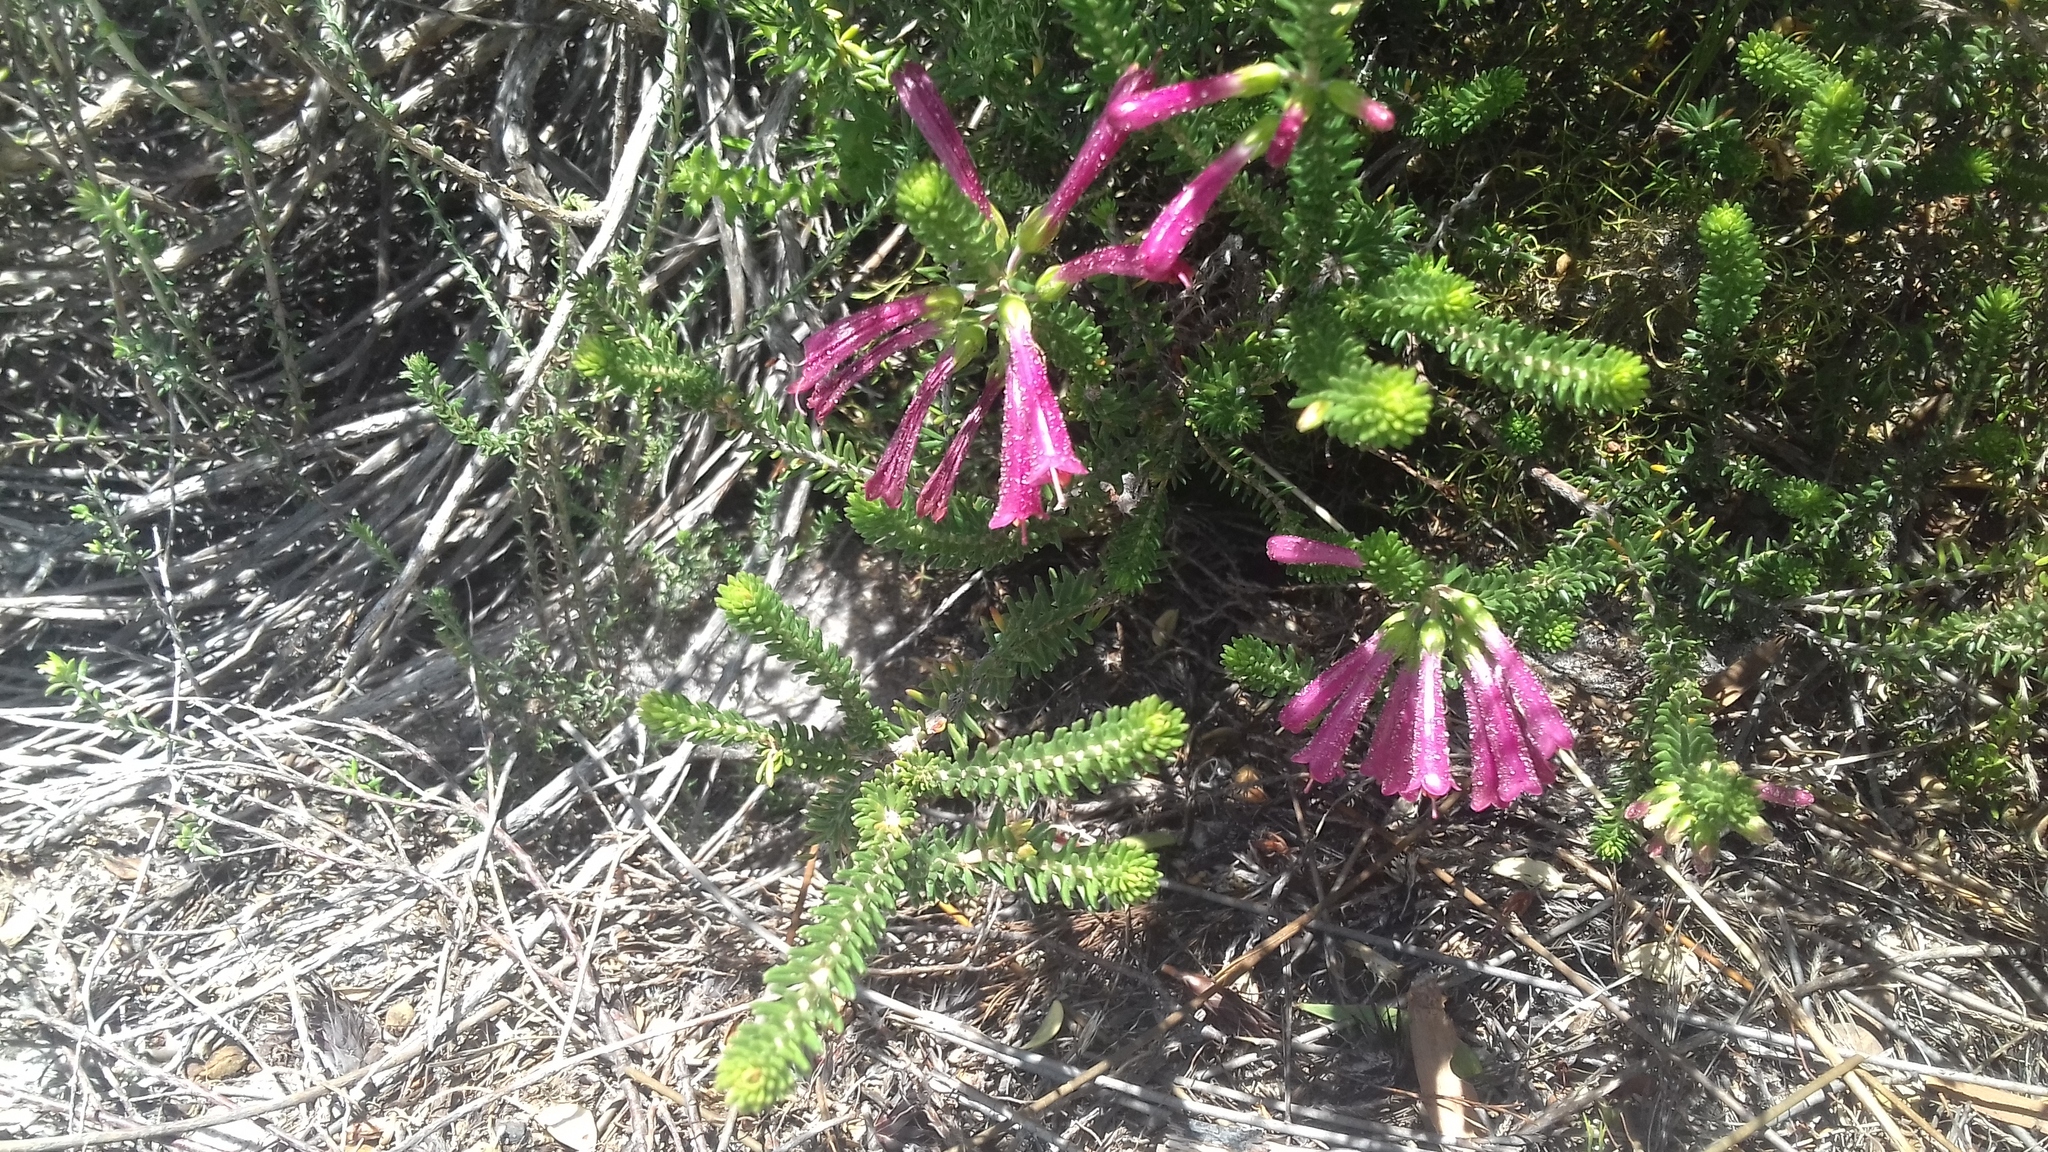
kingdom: Plantae
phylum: Tracheophyta
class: Magnoliopsida
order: Ericales
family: Ericaceae
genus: Erica
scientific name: Erica abietina
